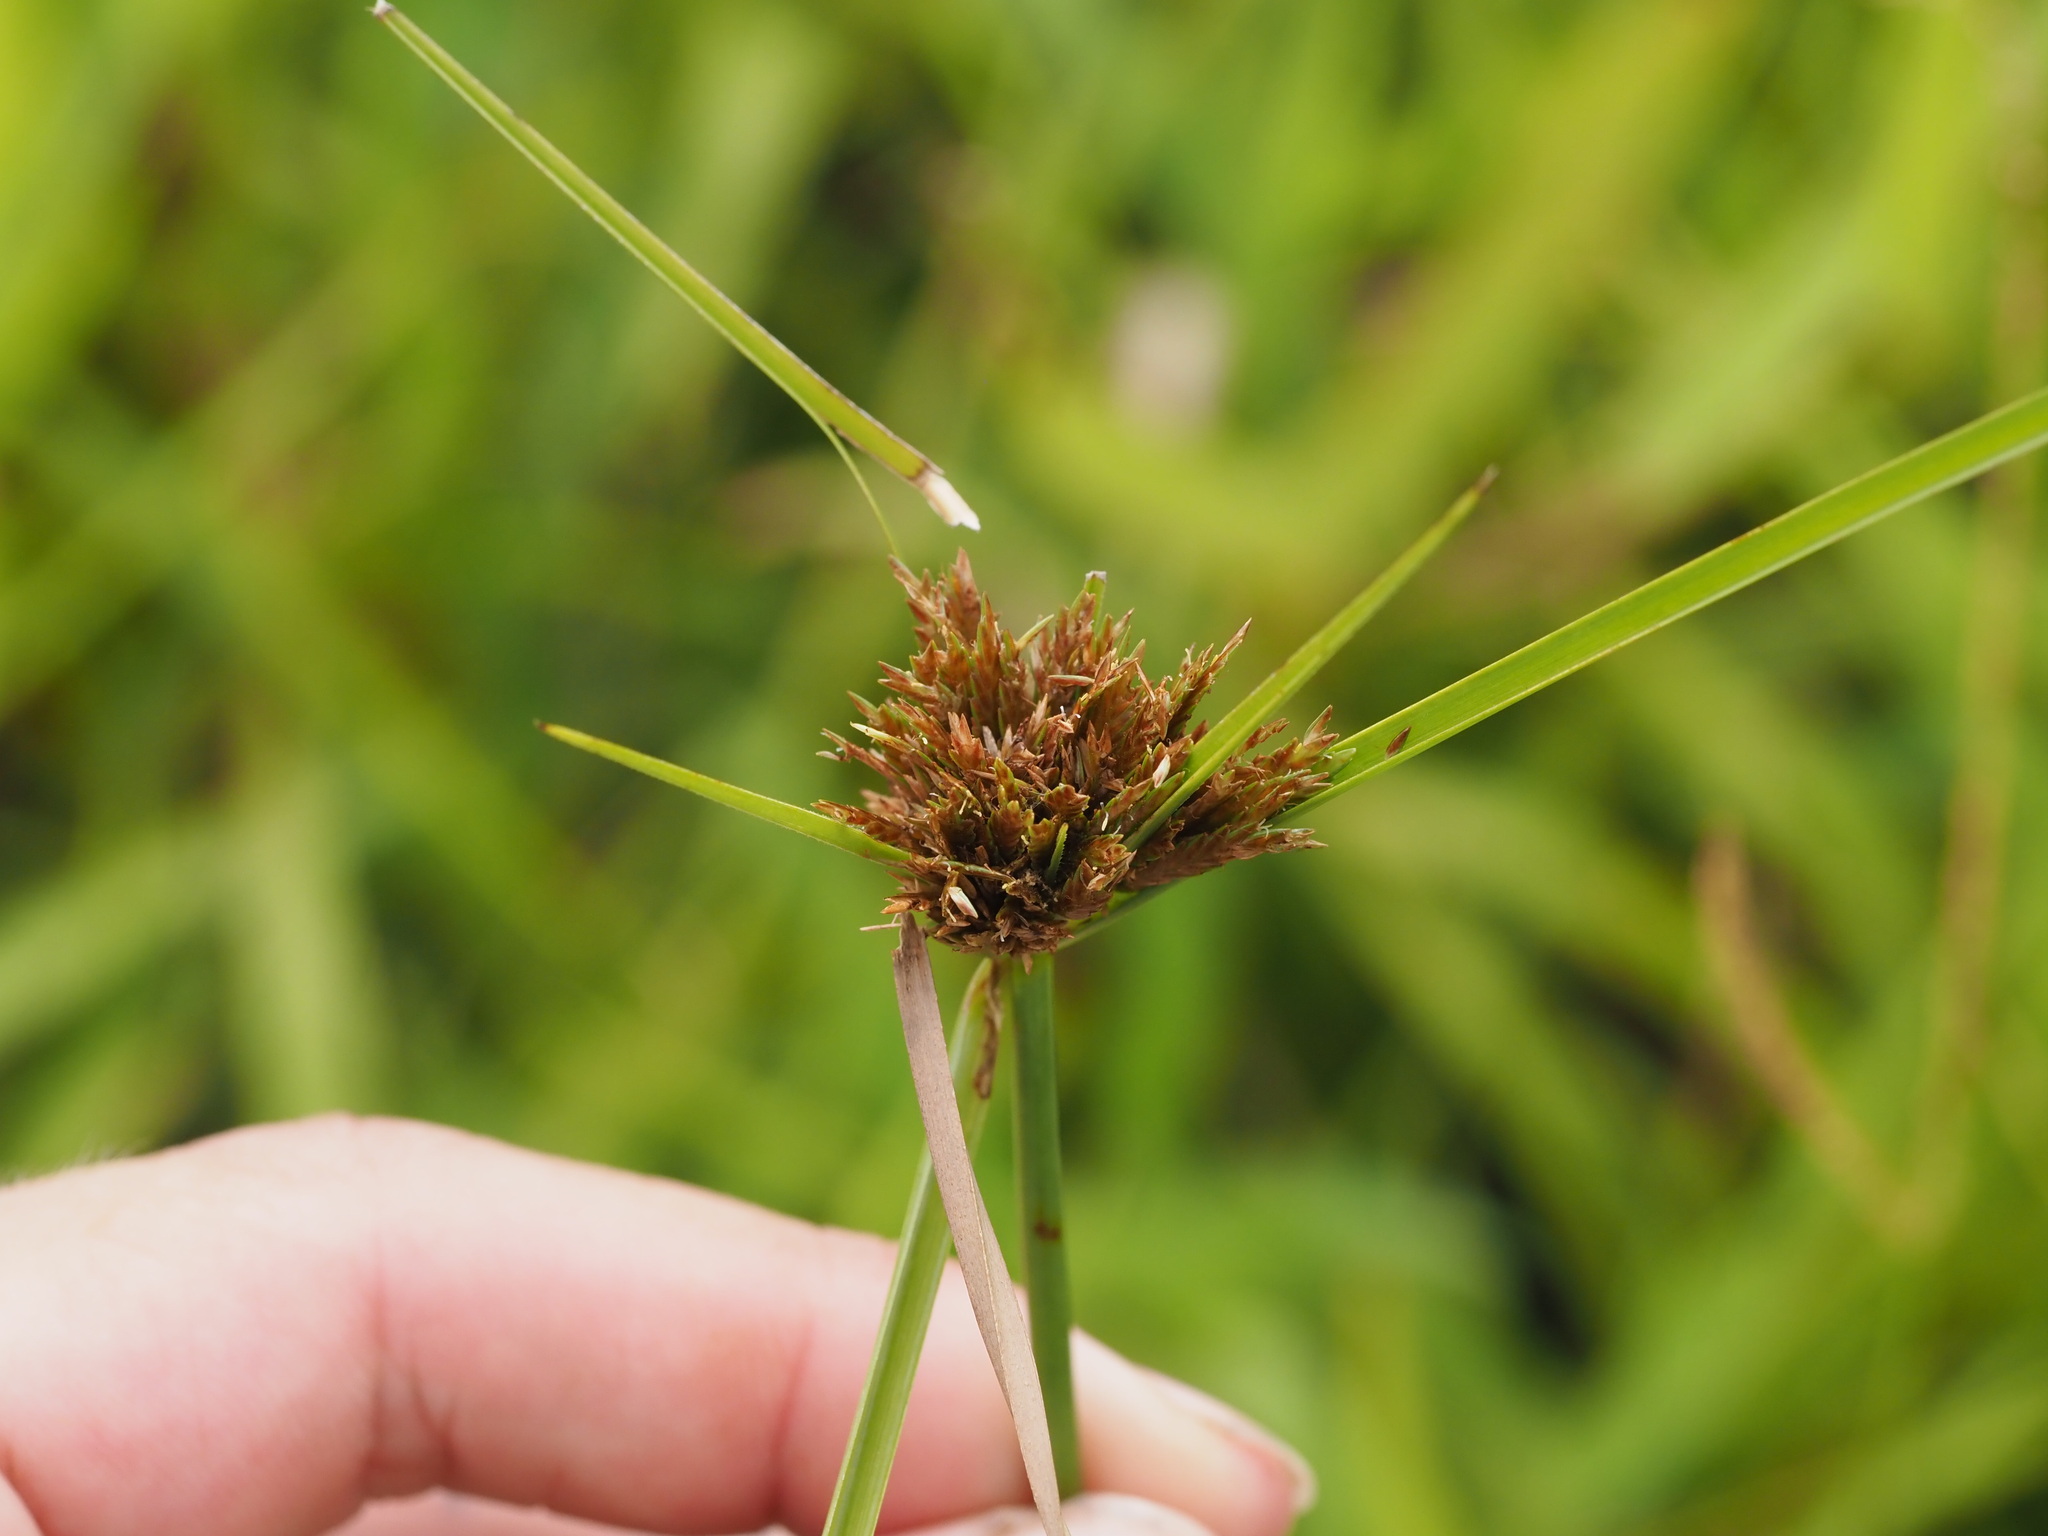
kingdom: Plantae
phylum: Tracheophyta
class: Liliopsida
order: Poales
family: Cyperaceae
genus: Cyperus
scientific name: Cyperus polystachyos
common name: Bunchy flat sedge
